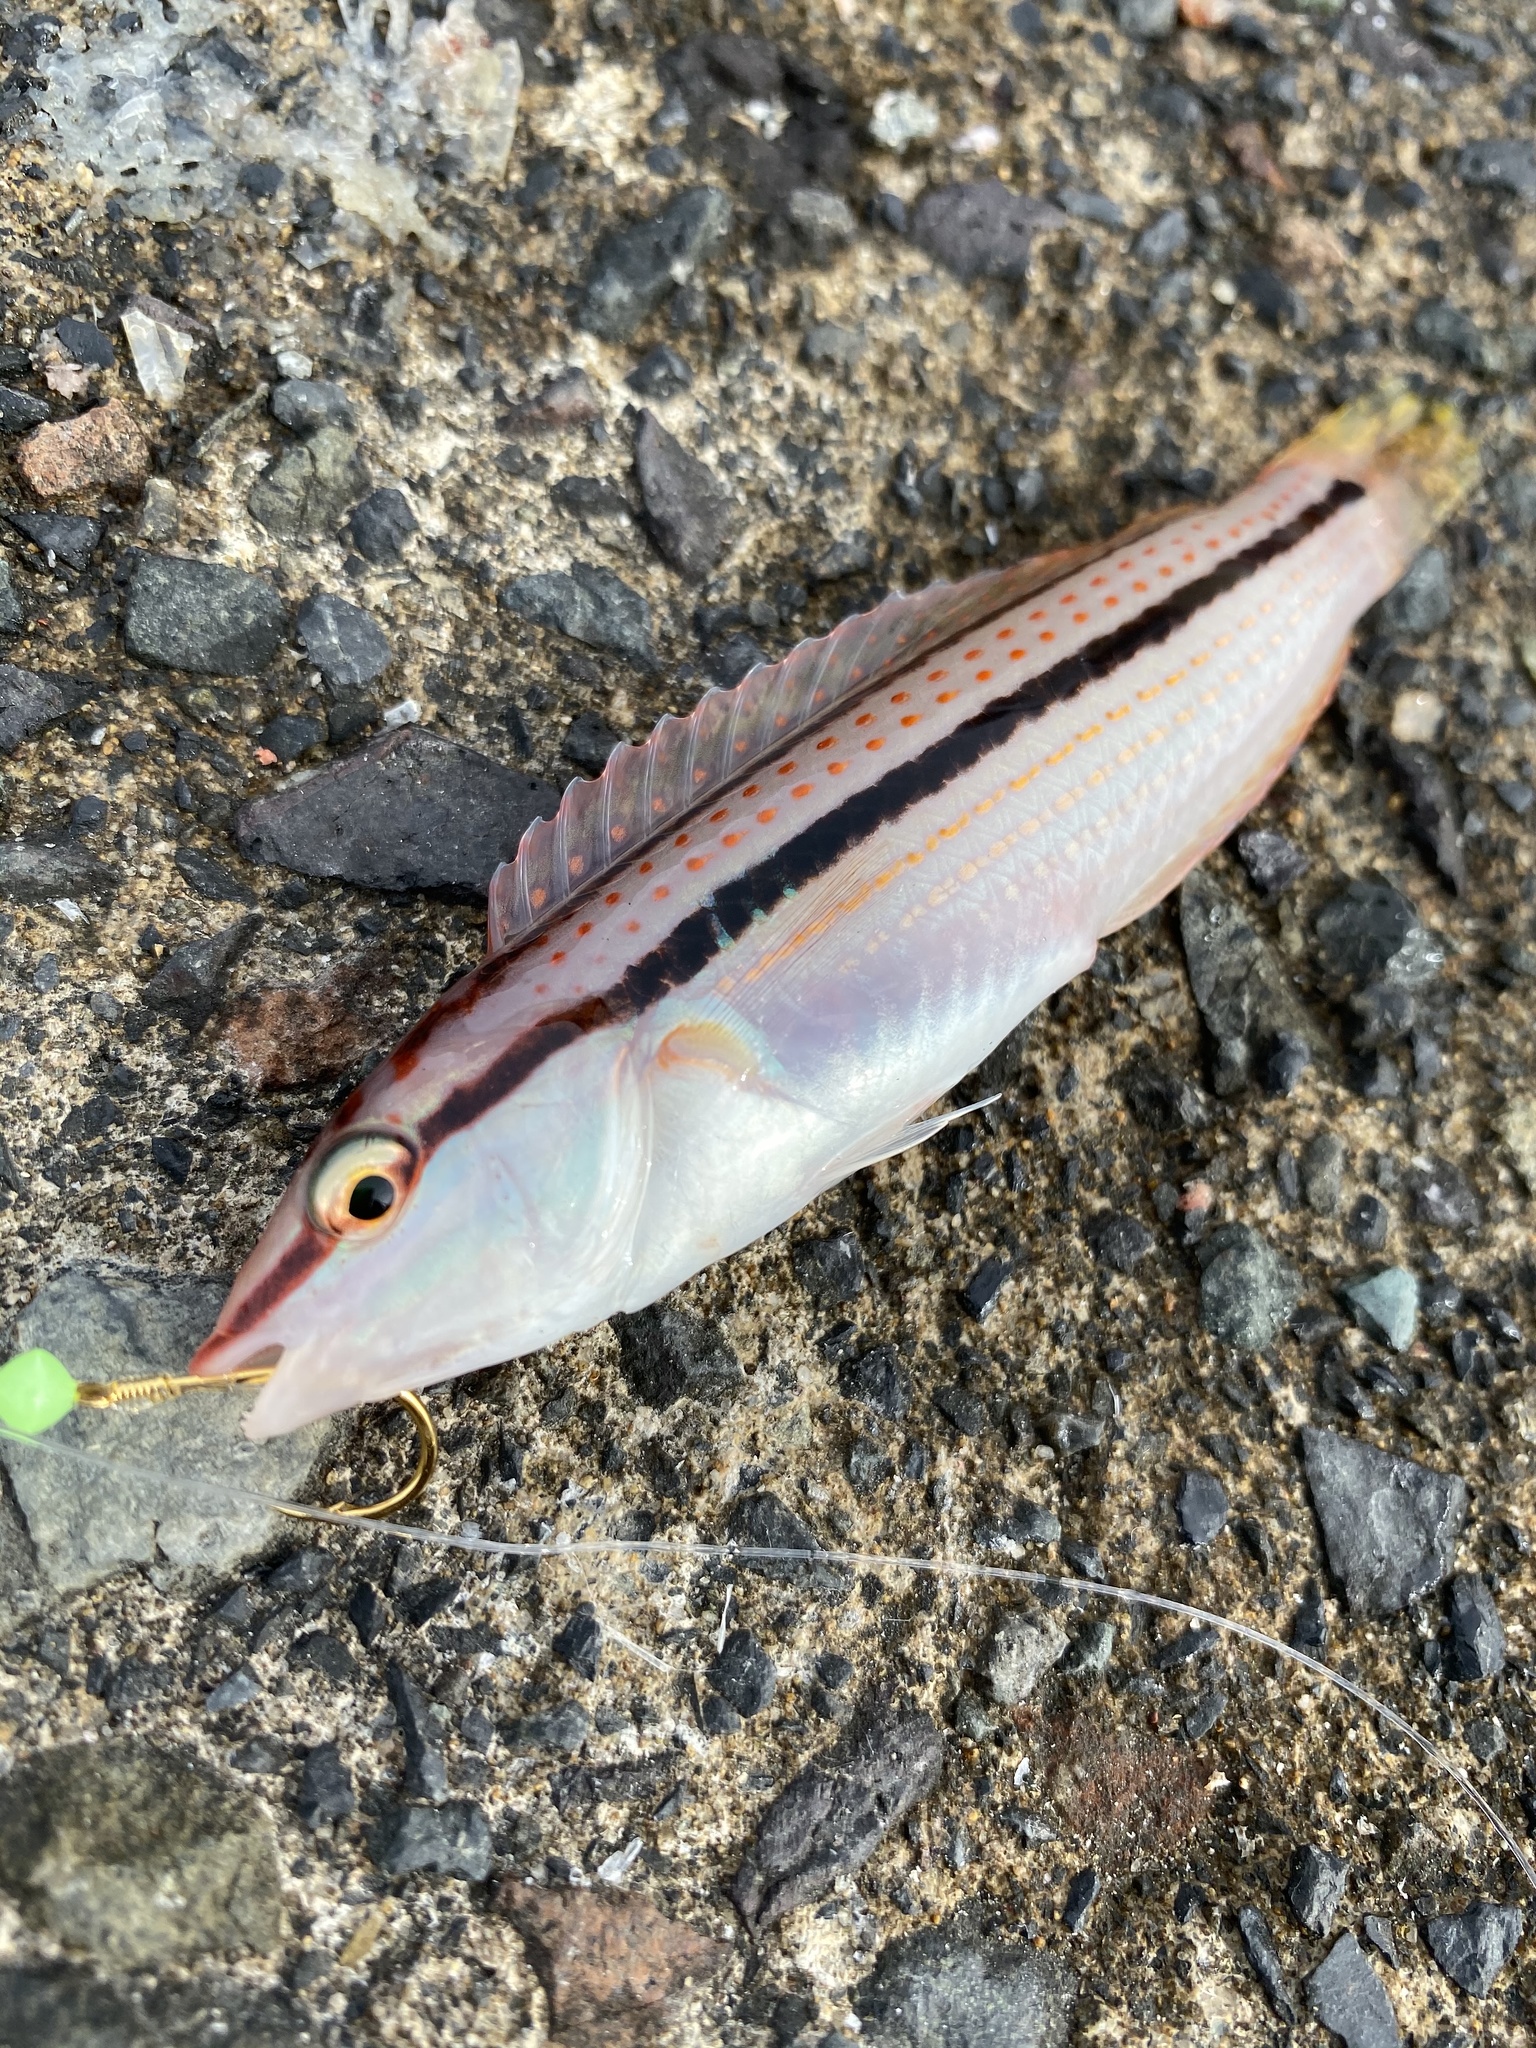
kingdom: Animalia
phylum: Chordata
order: Perciformes
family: Labridae
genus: Parajulis
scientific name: Parajulis poecilepterus
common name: Multicolorfin rainbowfish
